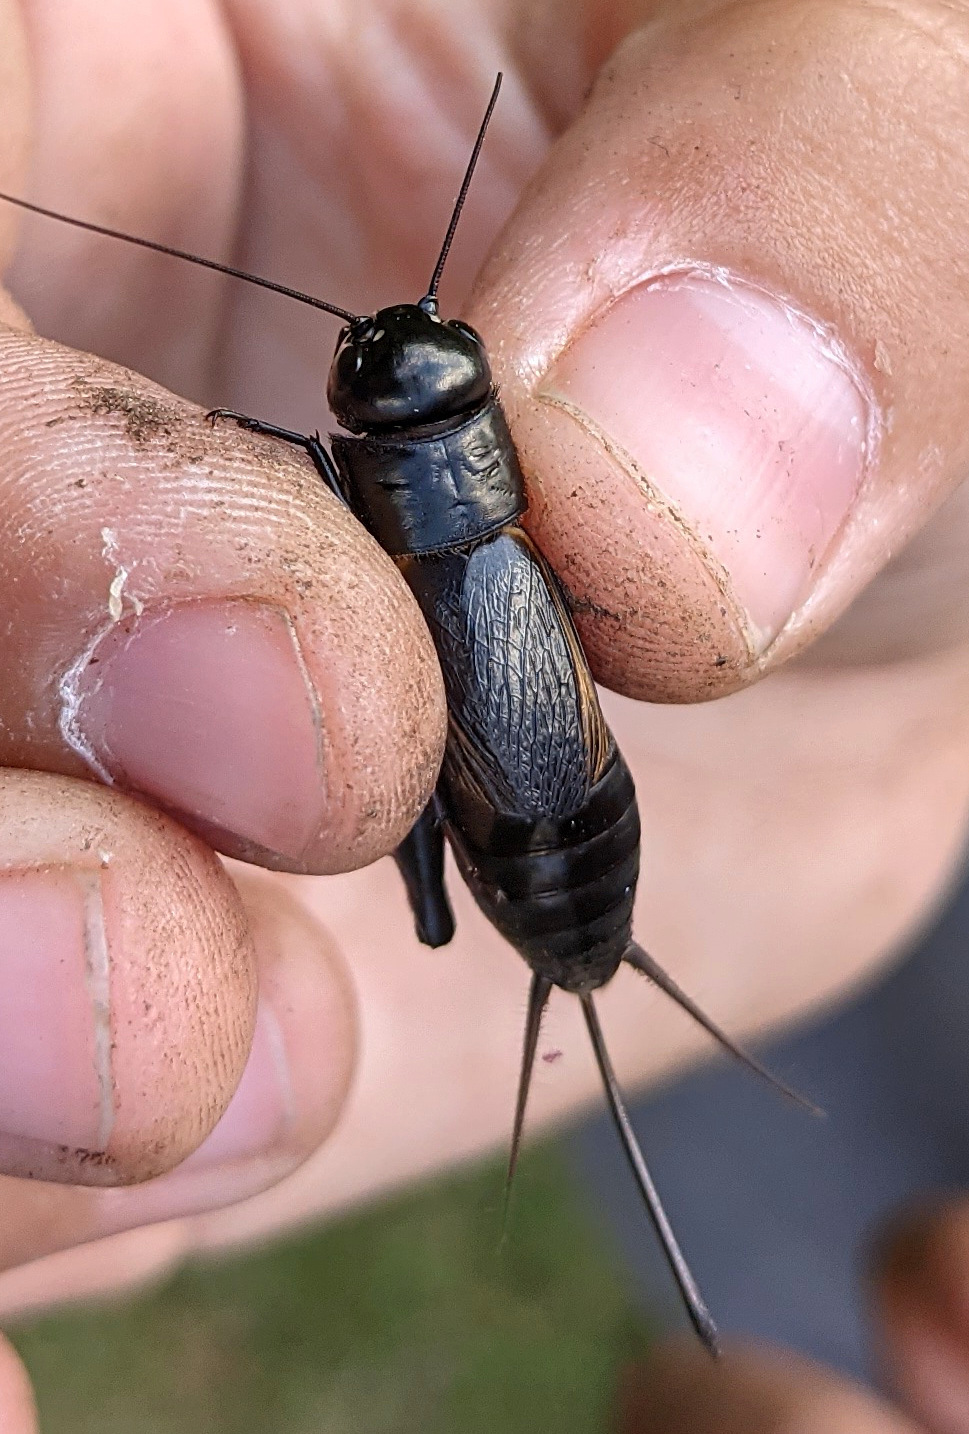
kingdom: Animalia
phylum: Arthropoda
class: Insecta
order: Orthoptera
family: Gryllidae
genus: Gryllus
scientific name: Gryllus pennsylvanicus
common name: Fall field cricket
